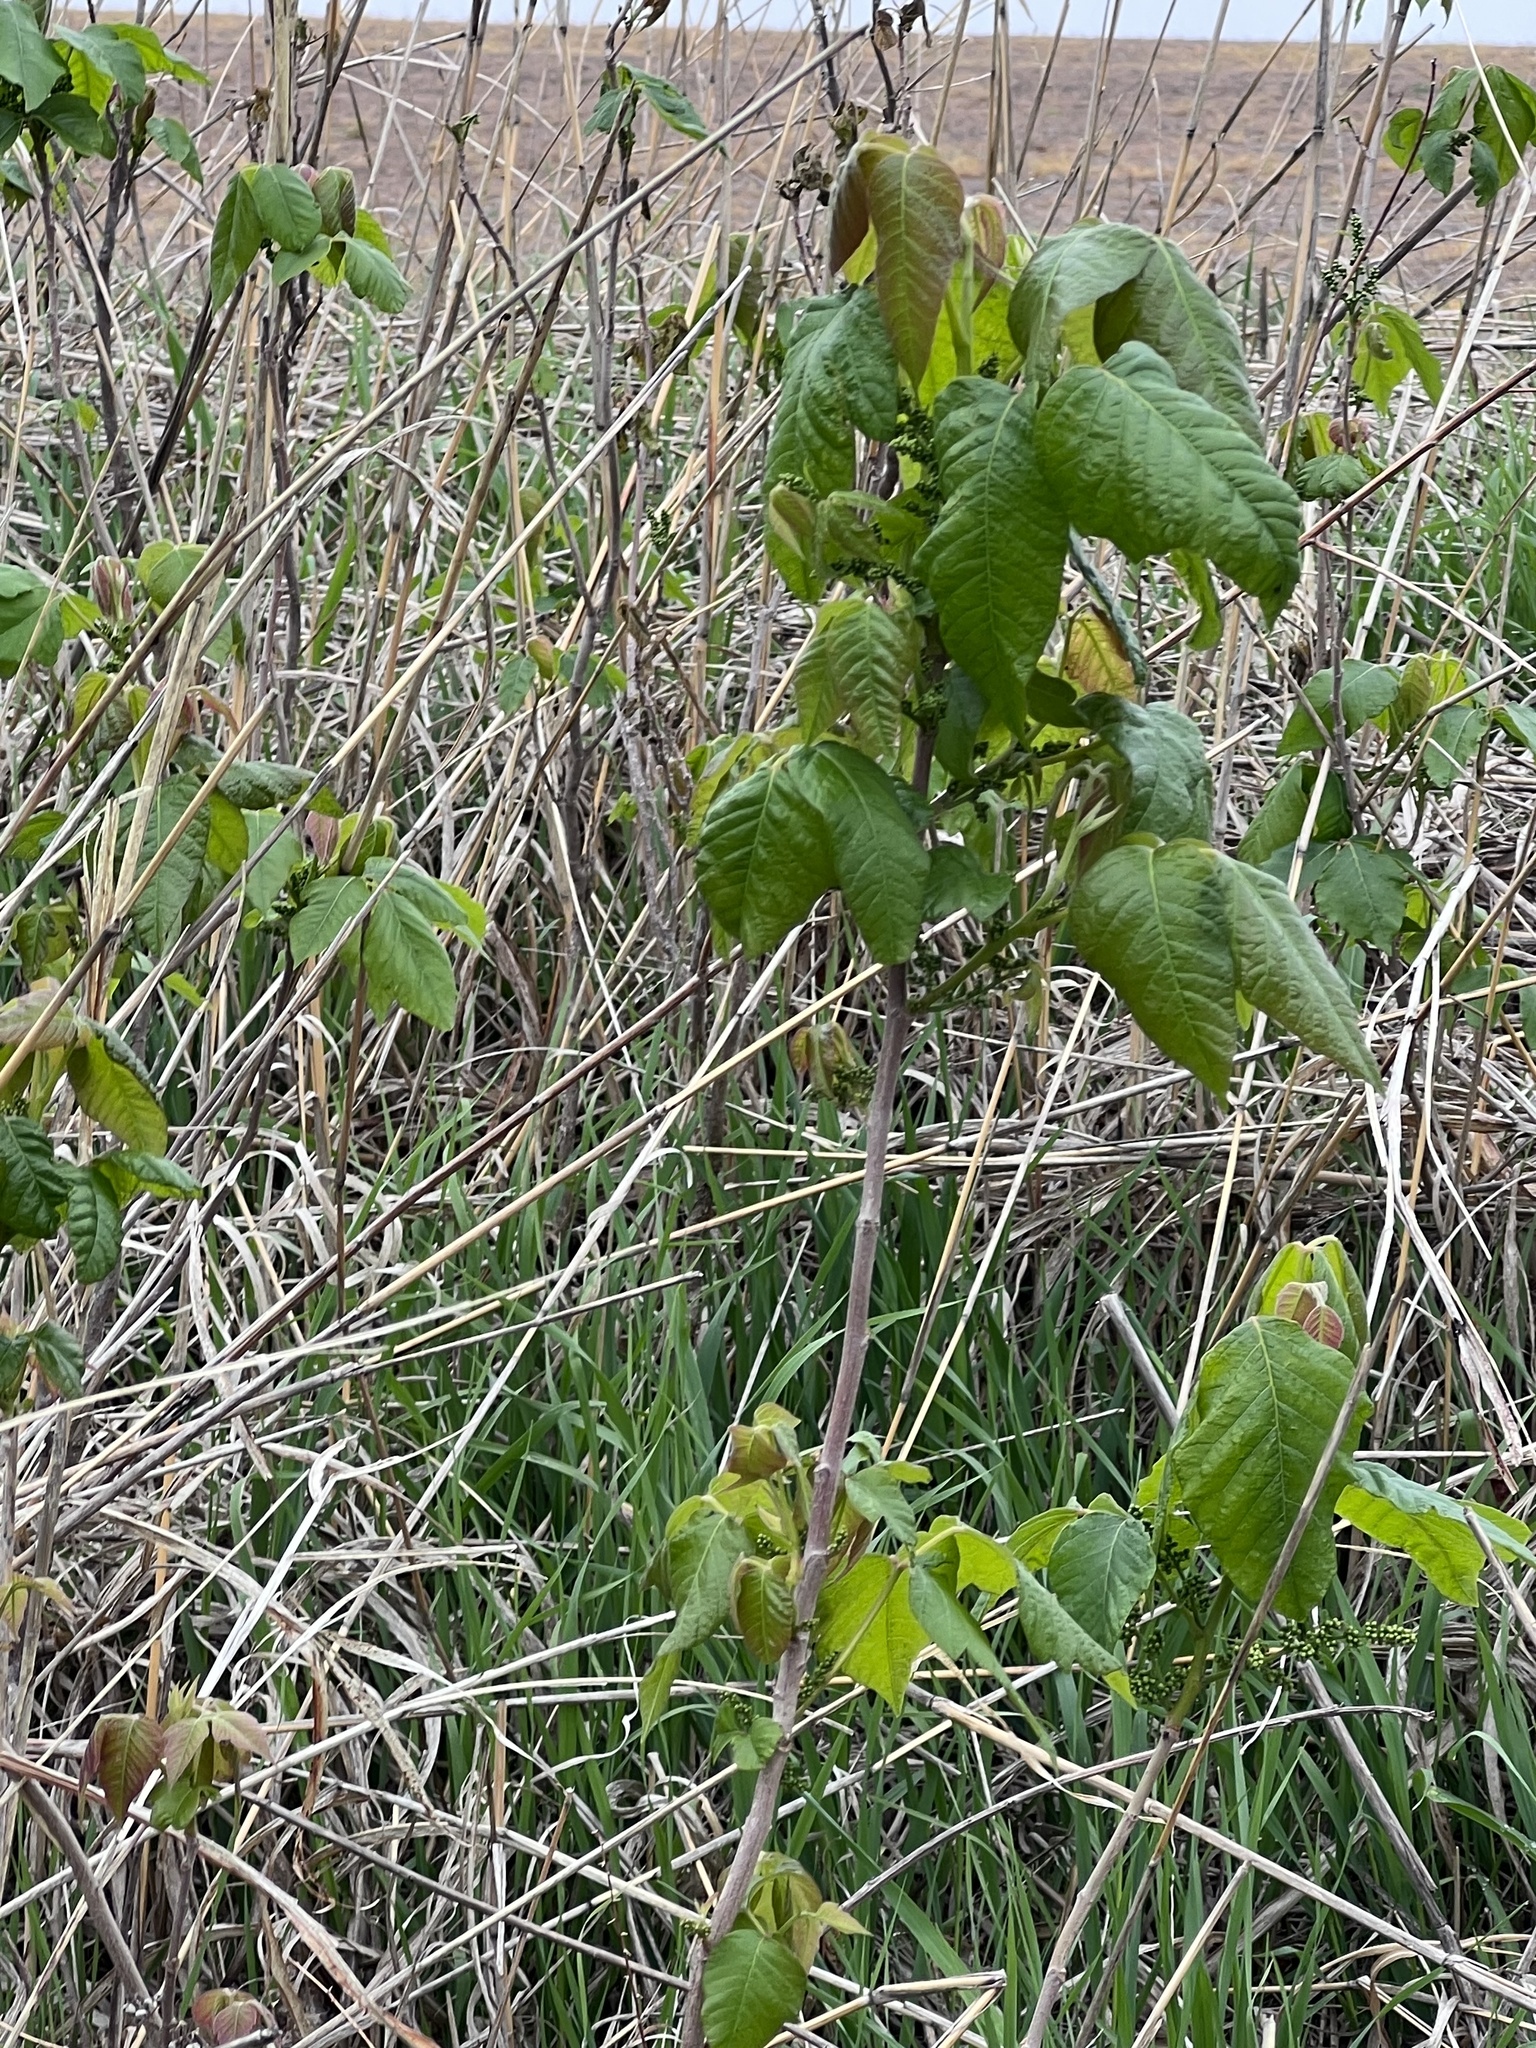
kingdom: Plantae
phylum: Tracheophyta
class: Magnoliopsida
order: Sapindales
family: Anacardiaceae
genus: Toxicodendron
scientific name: Toxicodendron radicans
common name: Poison ivy
